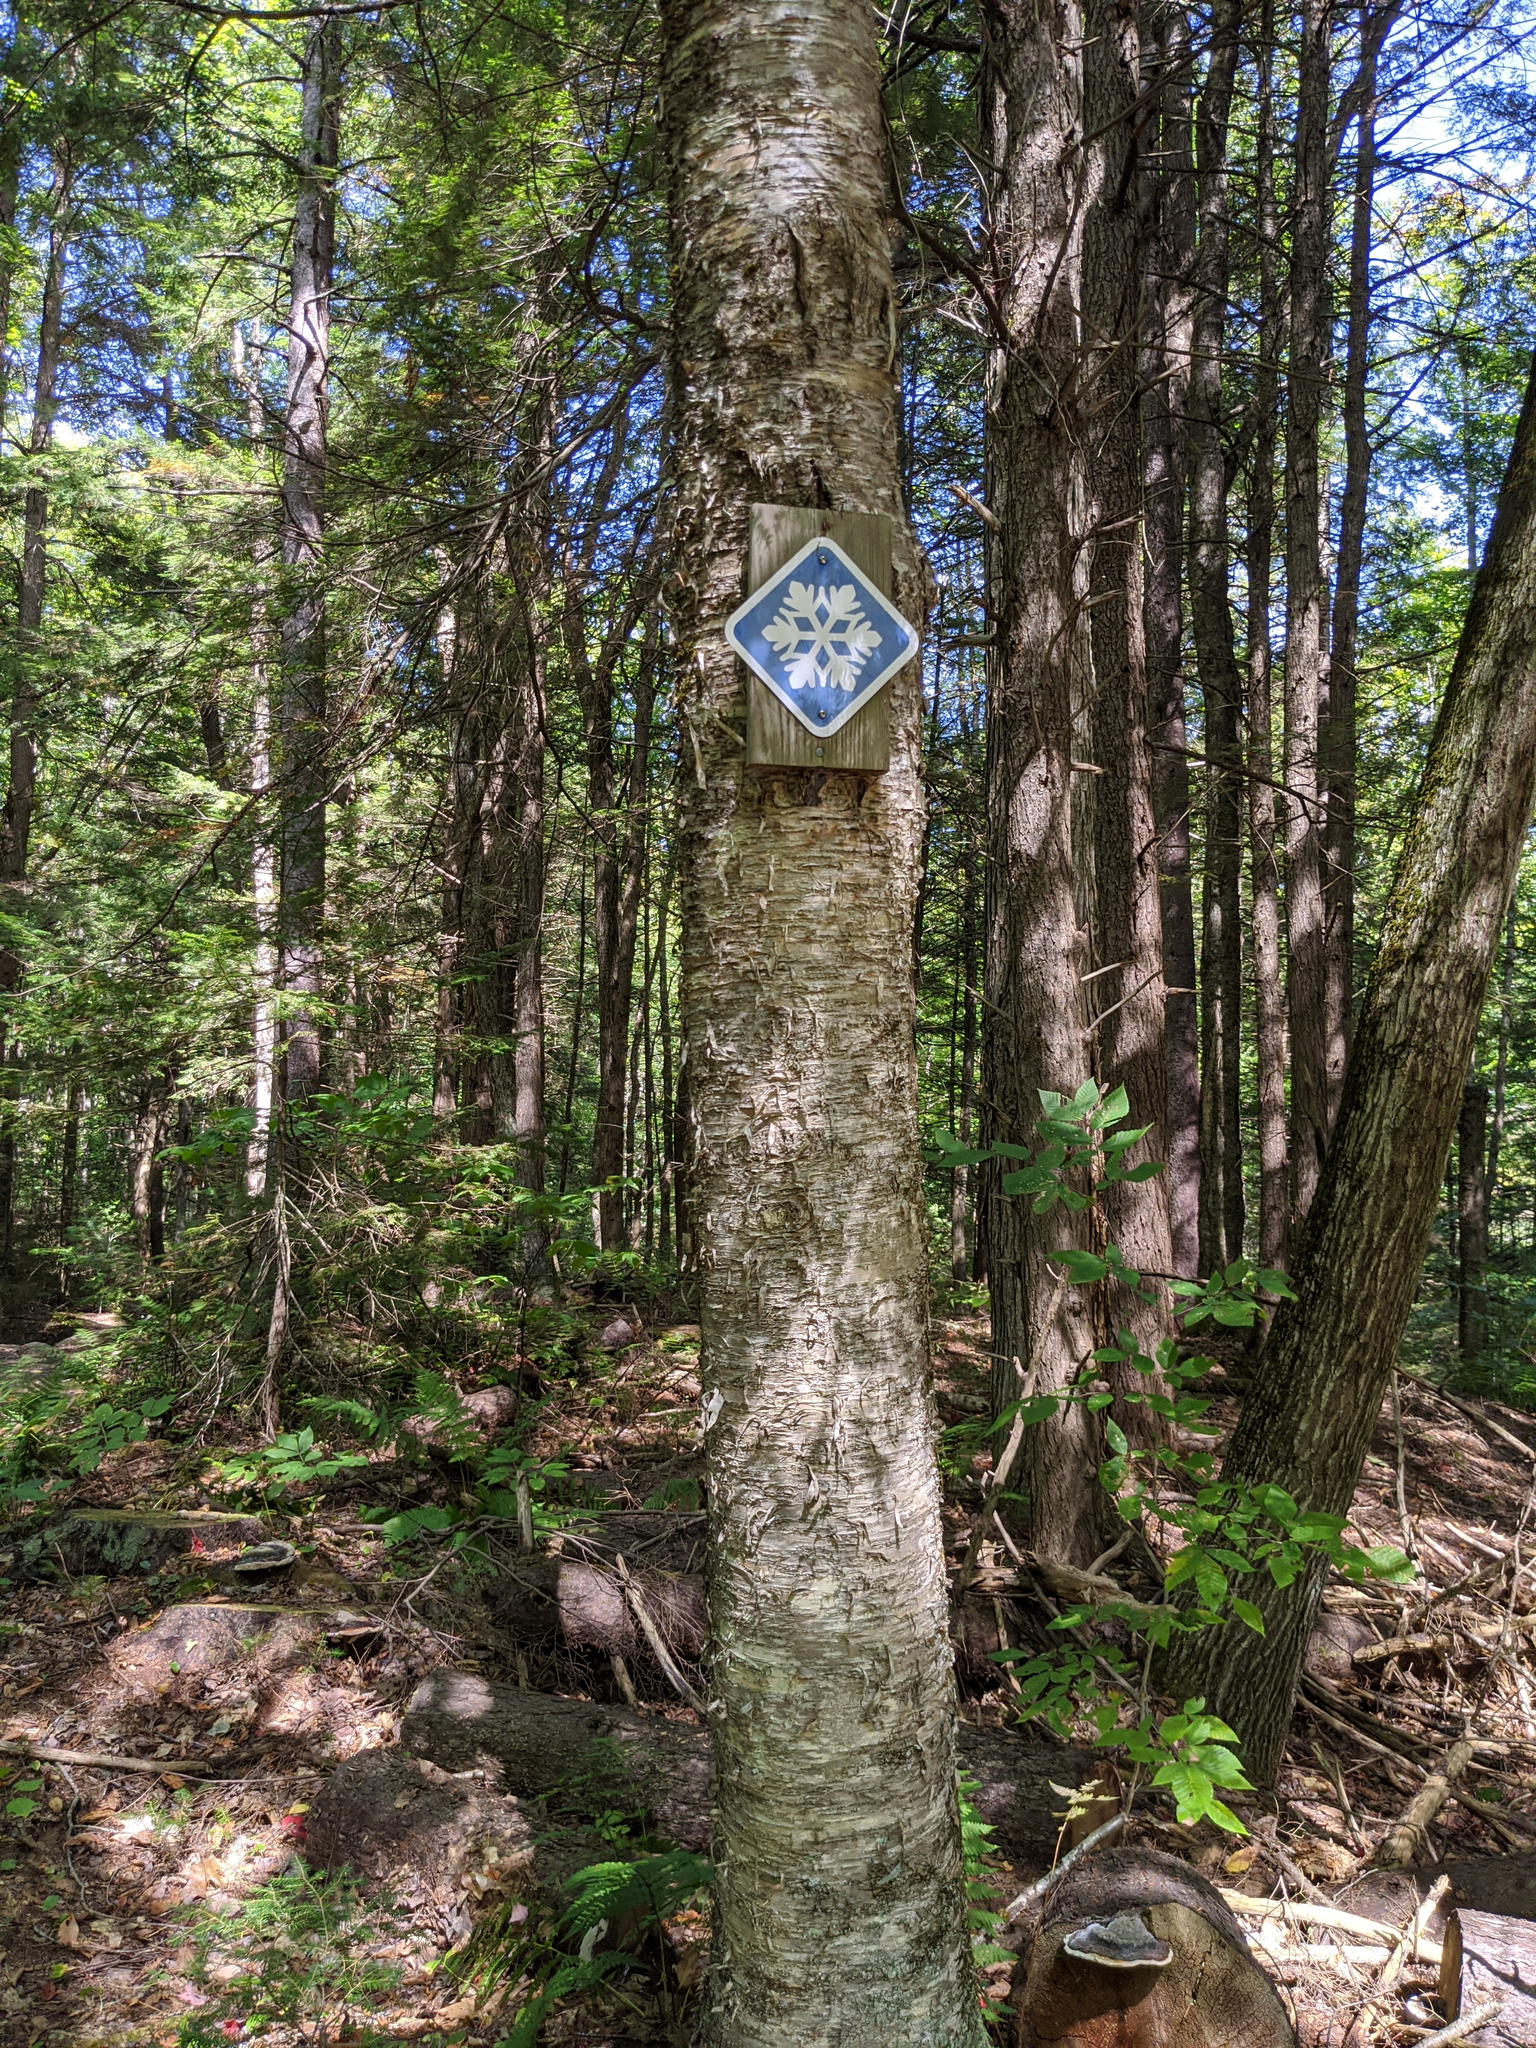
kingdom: Plantae
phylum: Tracheophyta
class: Magnoliopsida
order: Fagales
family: Betulaceae
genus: Betula
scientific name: Betula alleghaniensis
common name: Yellow birch
